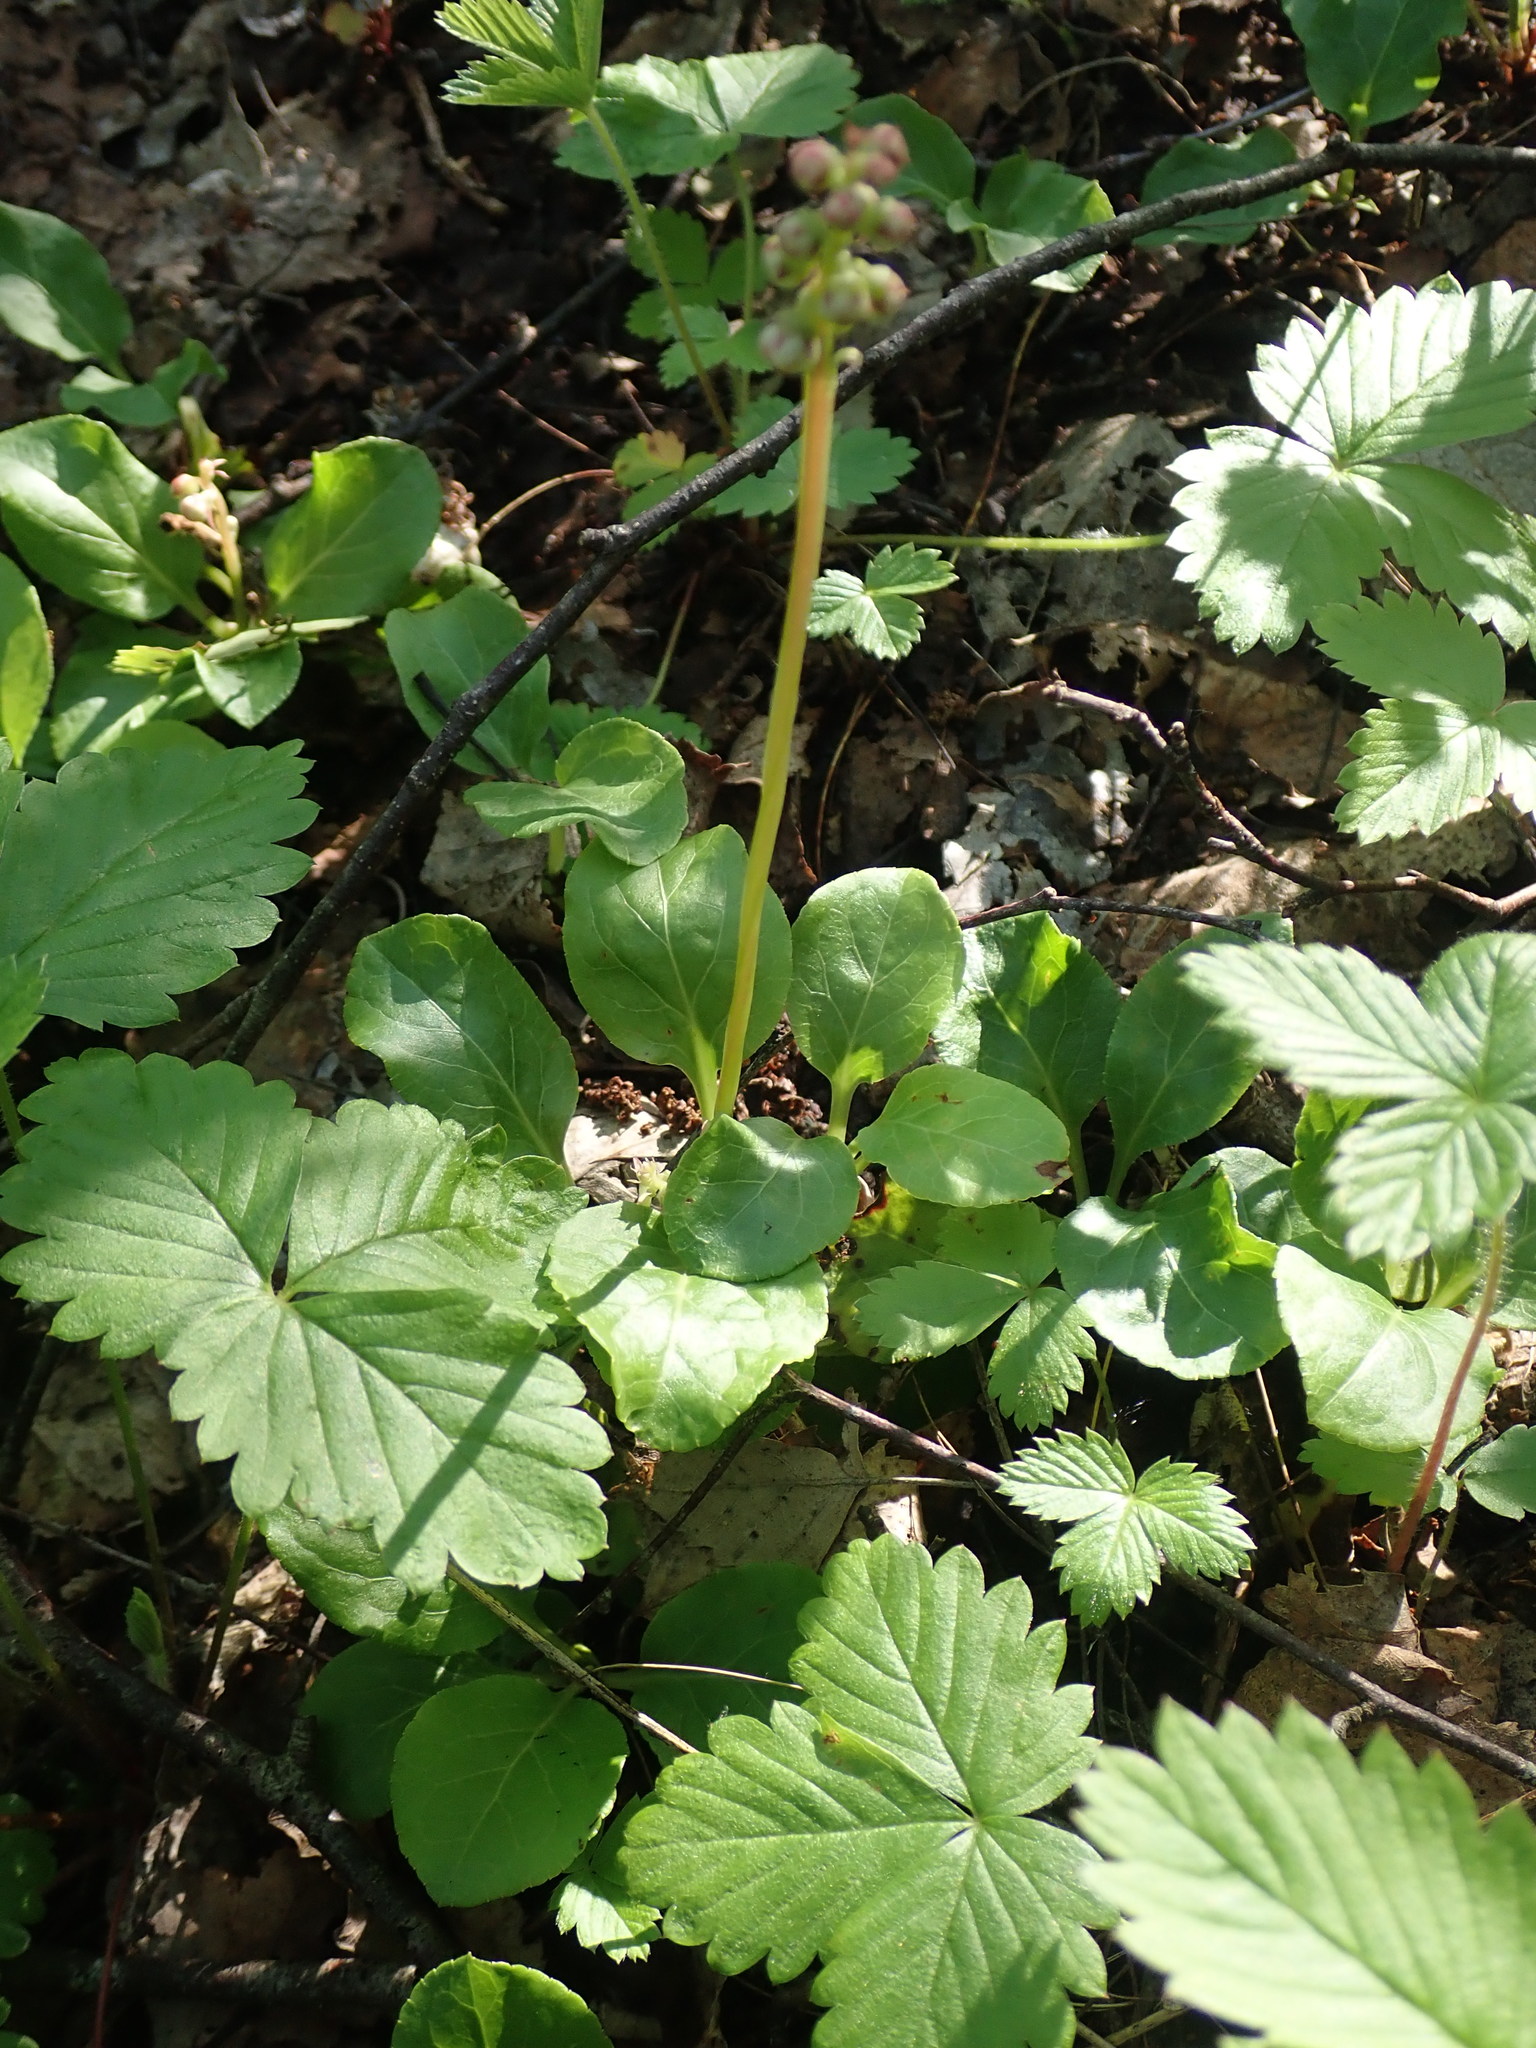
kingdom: Plantae
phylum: Tracheophyta
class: Magnoliopsida
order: Ericales
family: Ericaceae
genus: Pyrola
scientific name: Pyrola minor
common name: Common wintergreen
